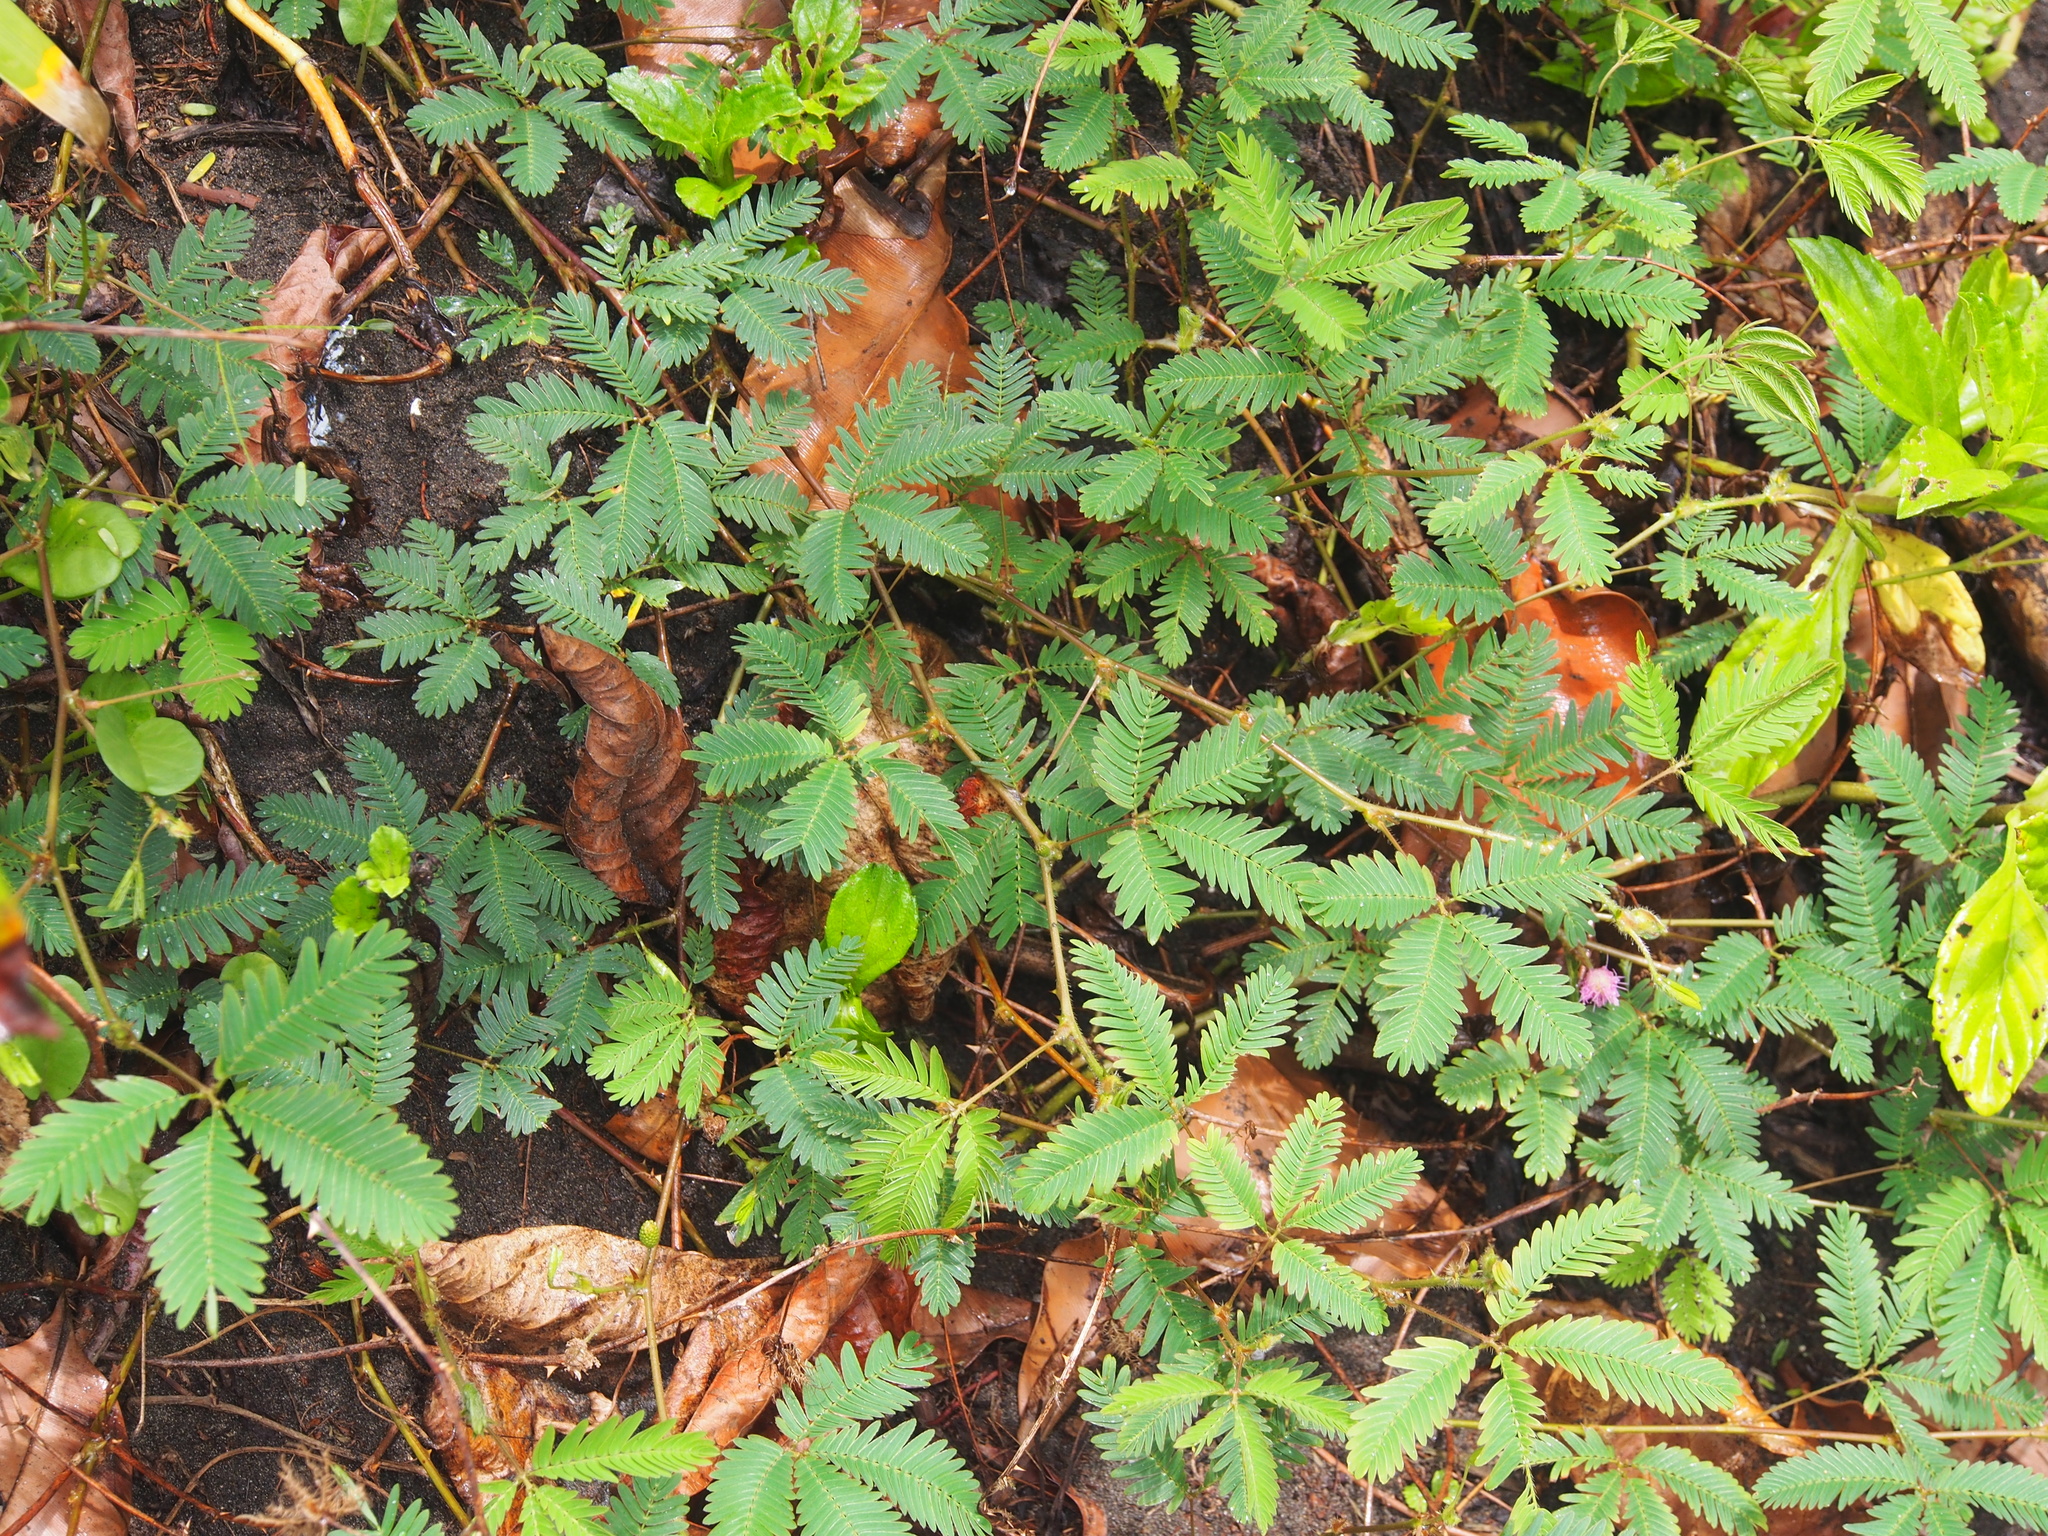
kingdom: Plantae
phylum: Tracheophyta
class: Magnoliopsida
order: Fabales
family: Fabaceae
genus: Mimosa
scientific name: Mimosa pudica
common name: Sensitive plant
